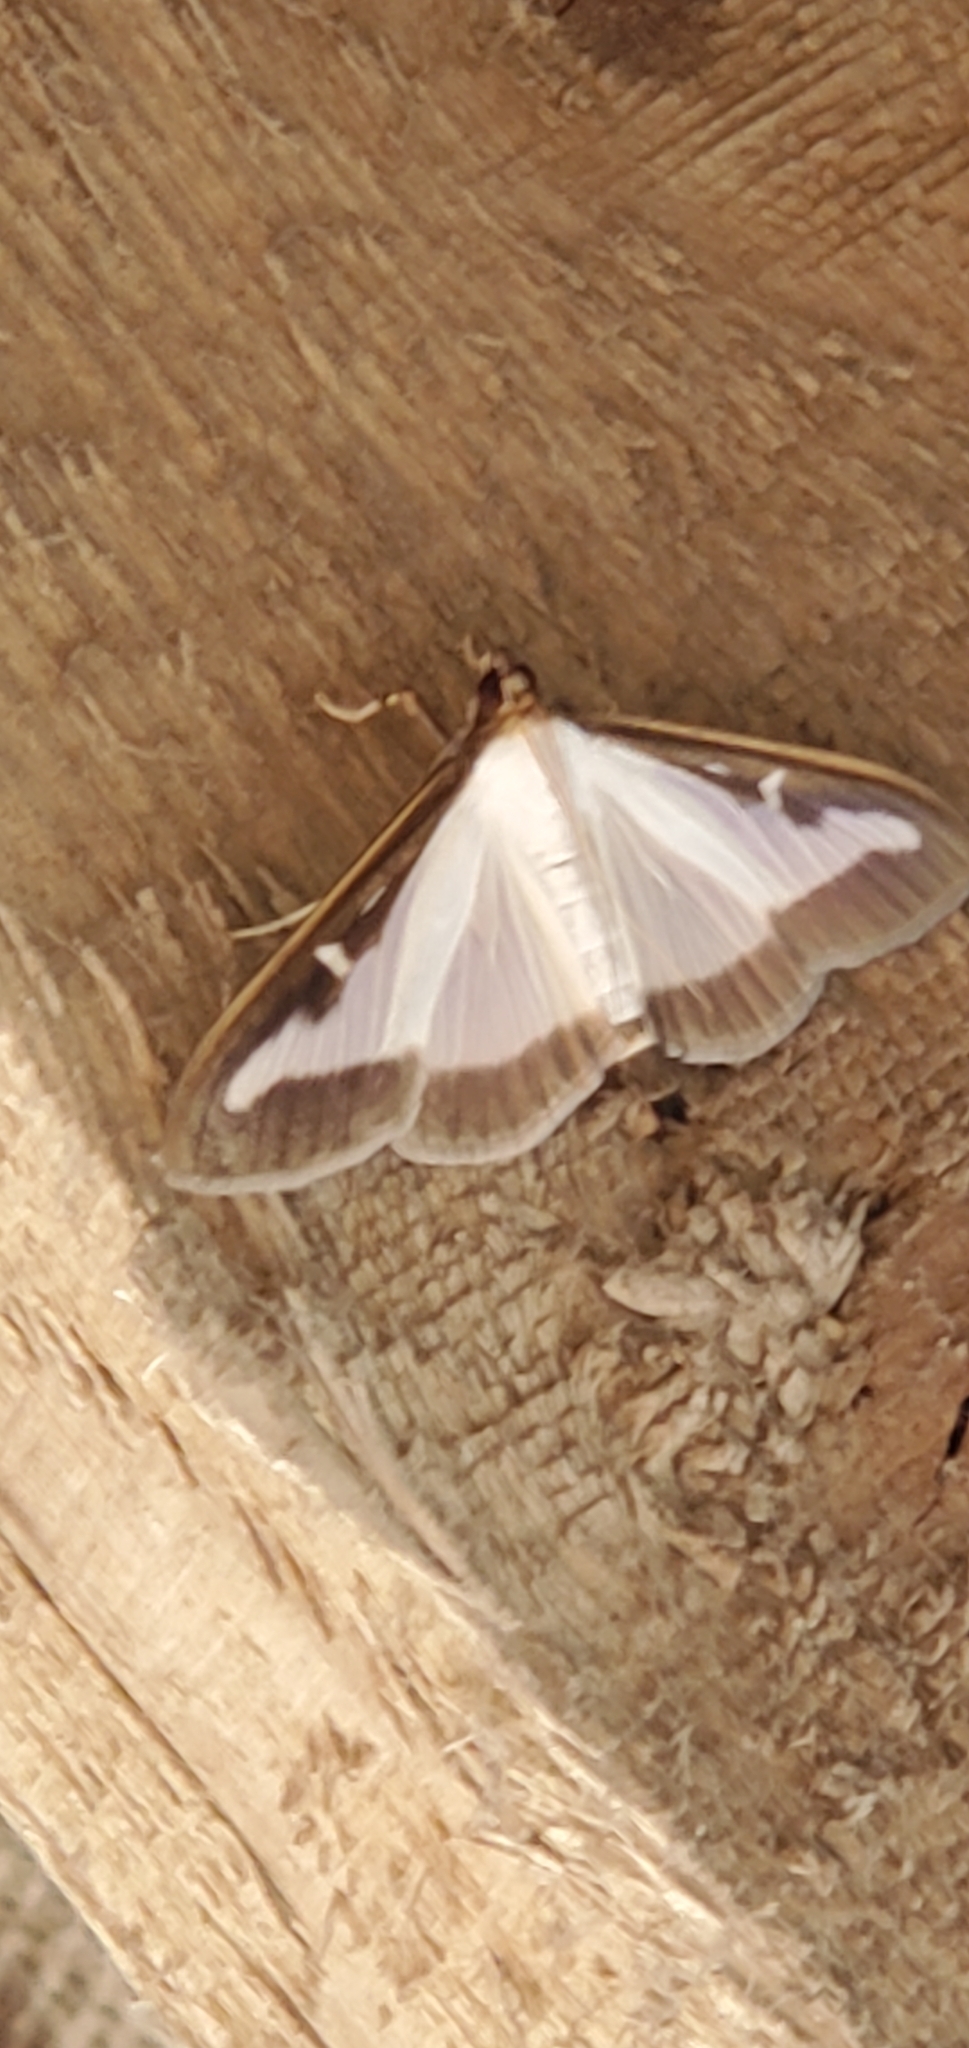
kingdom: Animalia
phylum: Arthropoda
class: Insecta
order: Lepidoptera
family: Crambidae
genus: Cydalima
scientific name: Cydalima perspectalis
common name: Box tree moth
